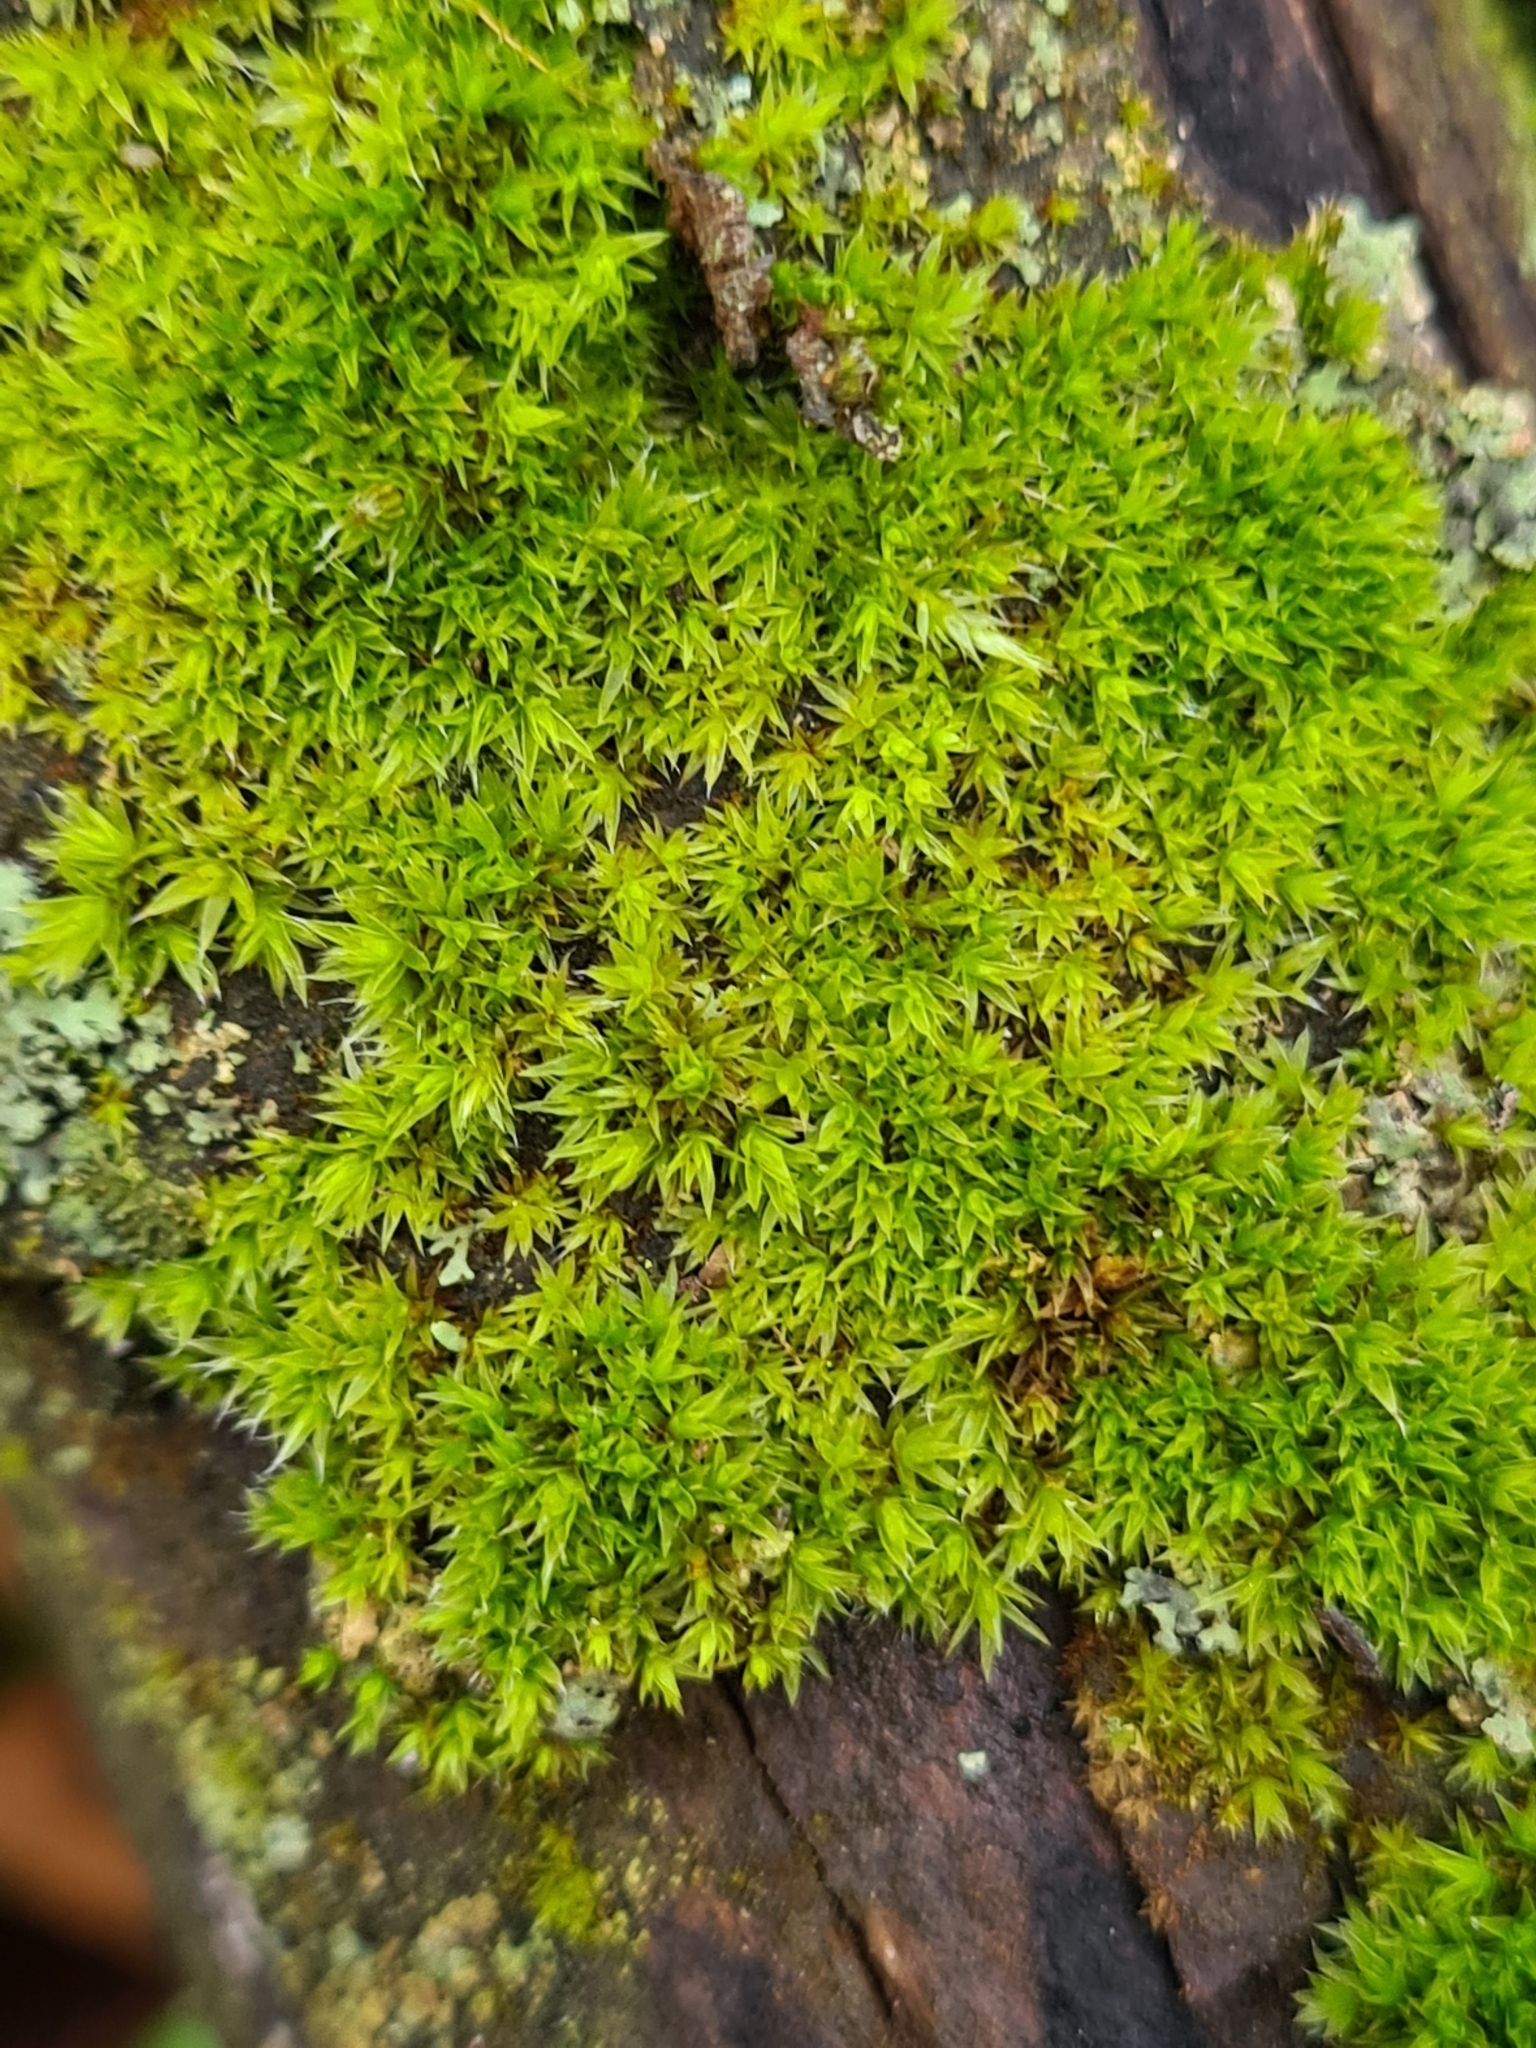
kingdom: Plantae
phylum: Bryophyta
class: Bryopsida
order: Orthotrichales
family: Orthotrichaceae
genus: Orthotrichum
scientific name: Orthotrichum diaphanum
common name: White-tipped bristle-moss
